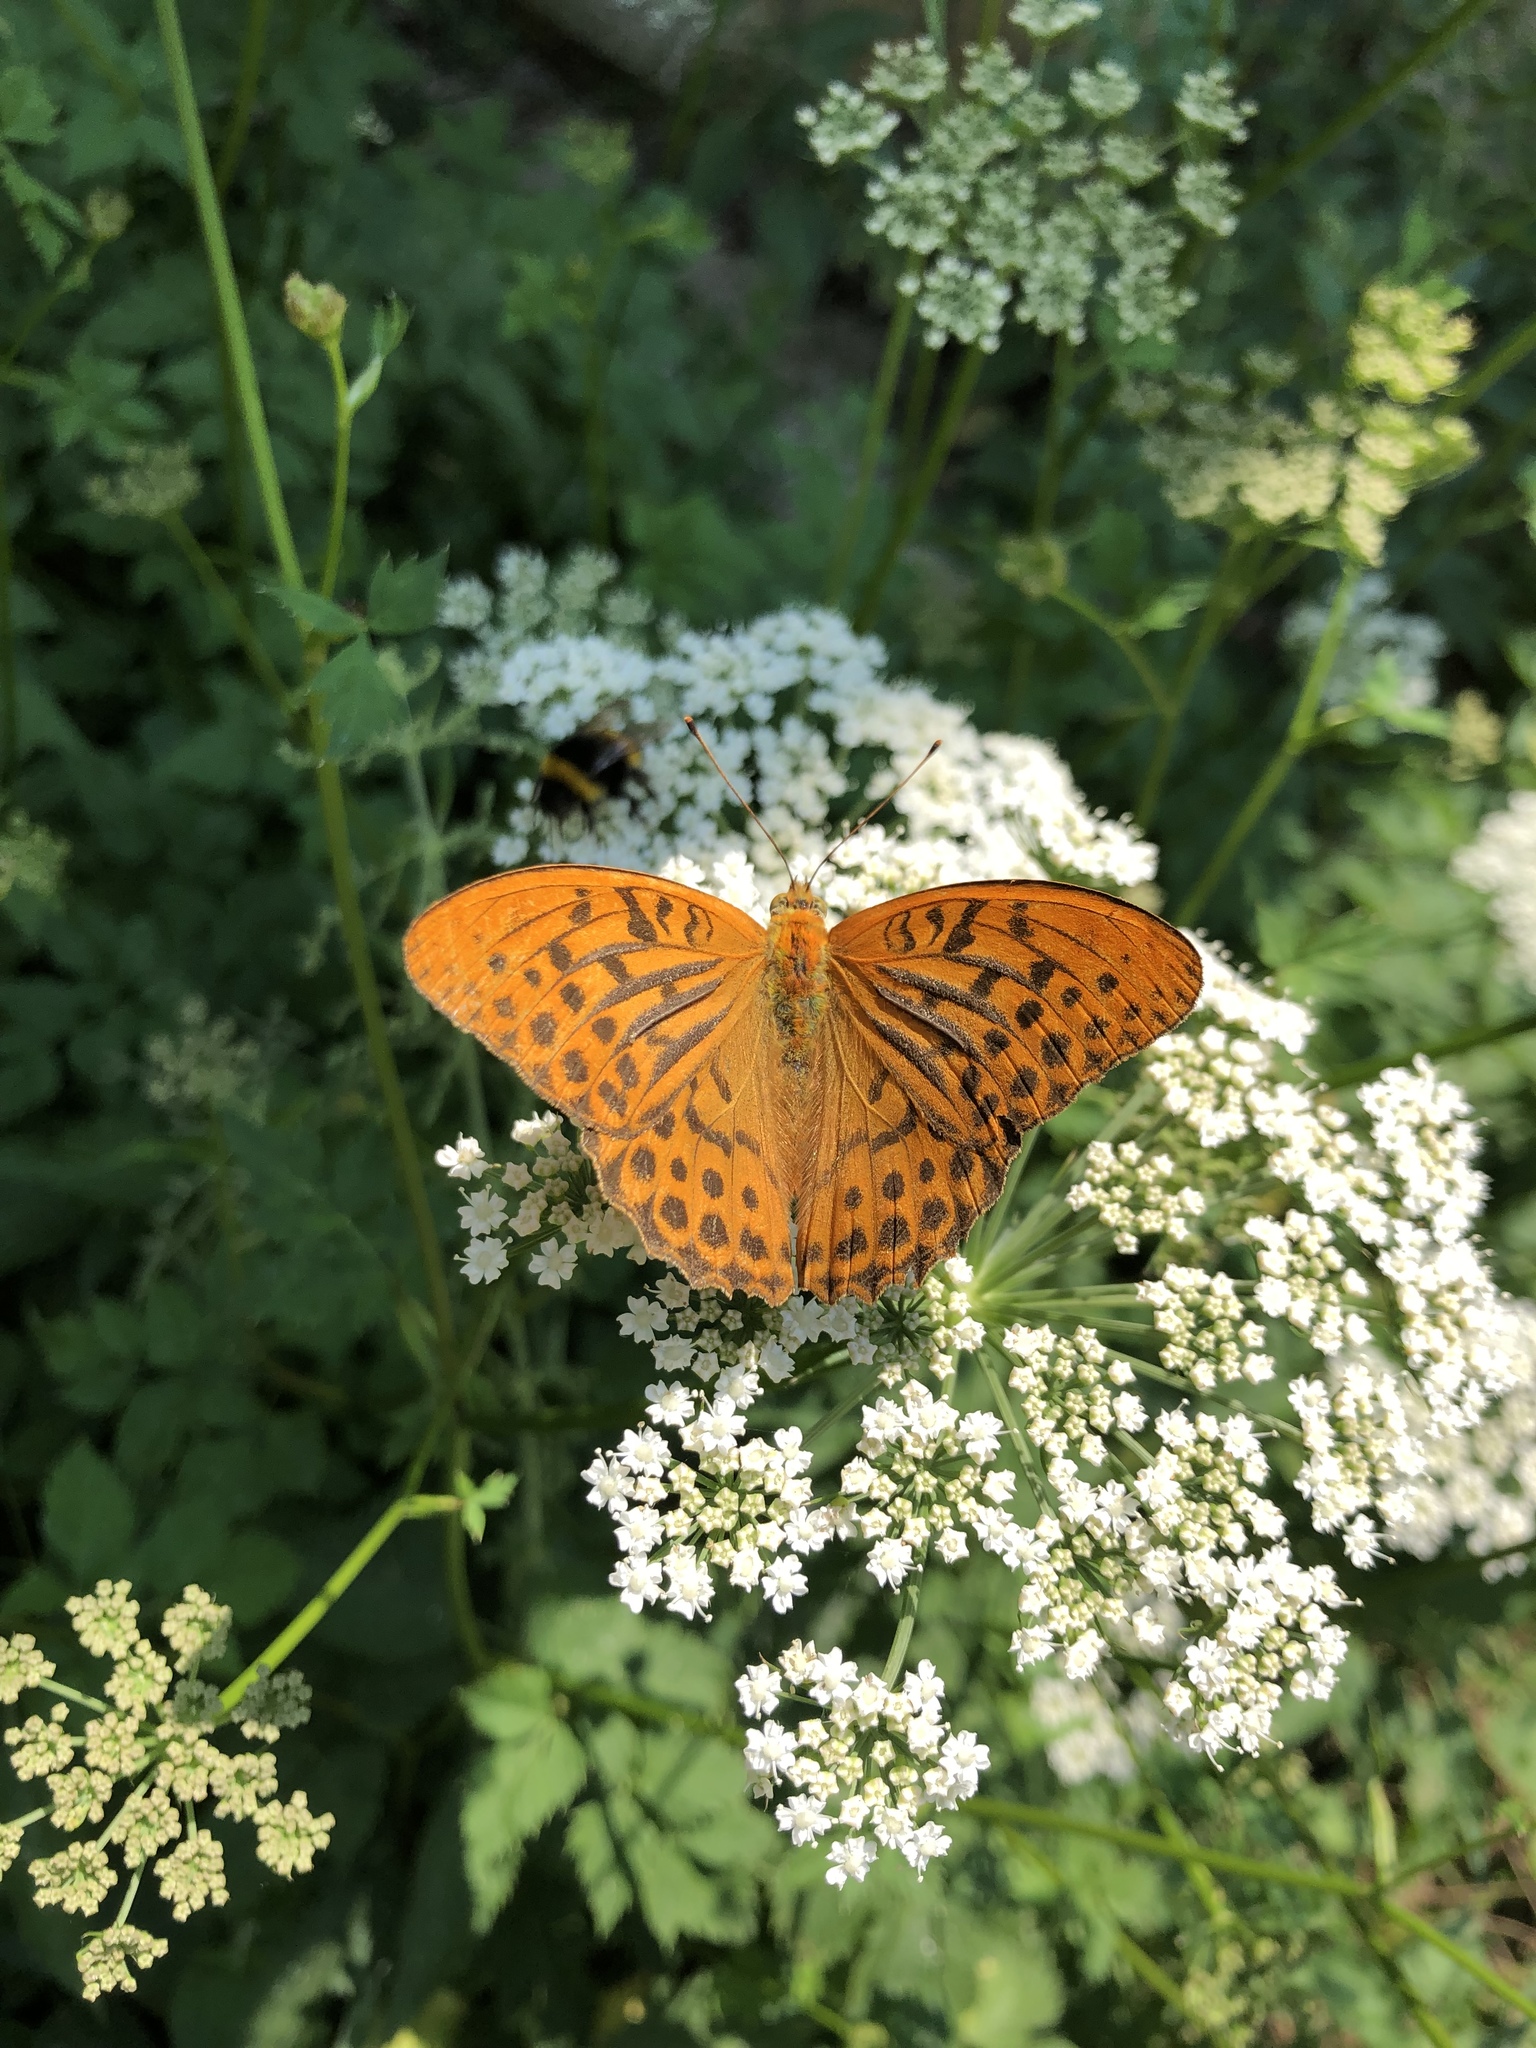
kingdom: Animalia
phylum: Arthropoda
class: Insecta
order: Lepidoptera
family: Nymphalidae
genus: Argynnis
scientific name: Argynnis paphia
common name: Silver-washed fritillary
